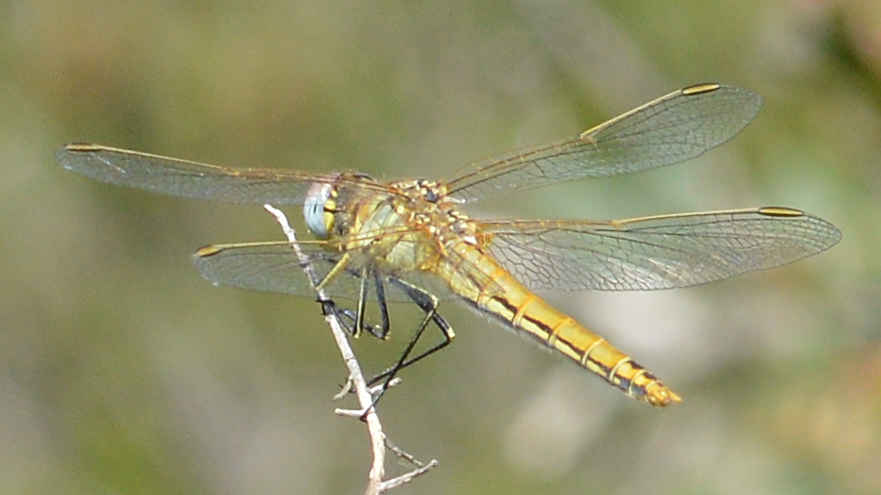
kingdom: Animalia
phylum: Arthropoda
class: Insecta
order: Odonata
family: Libellulidae
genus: Sympetrum
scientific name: Sympetrum fonscolombii
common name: Red-veined darter
